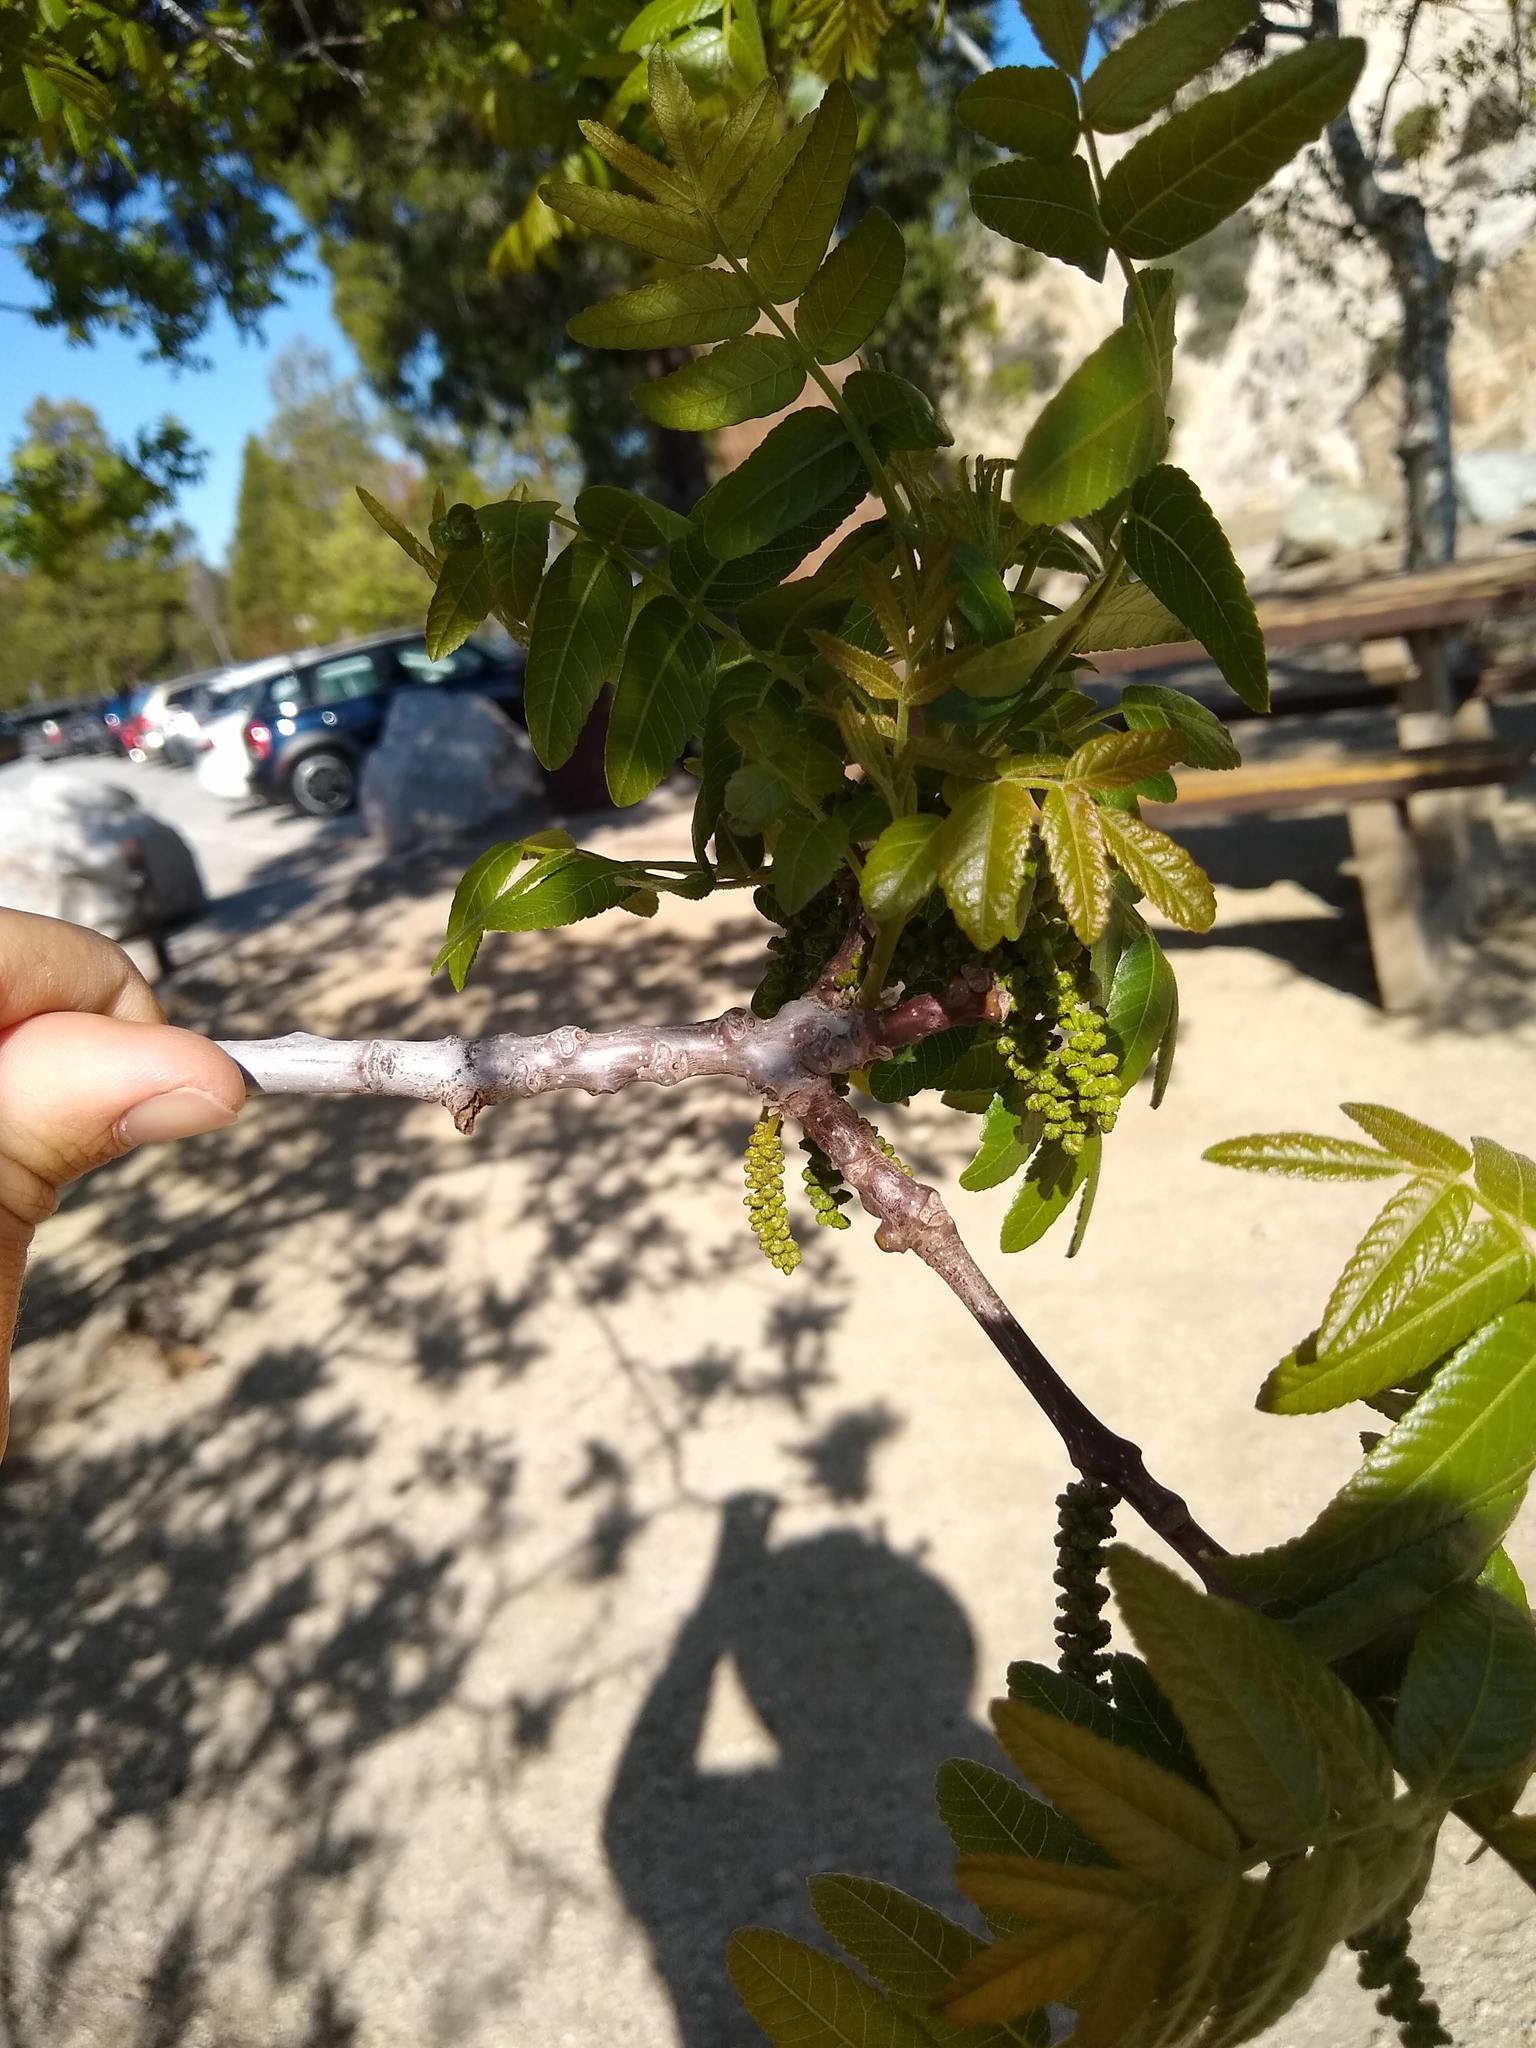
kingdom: Plantae
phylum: Tracheophyta
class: Magnoliopsida
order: Fagales
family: Juglandaceae
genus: Juglans
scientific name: Juglans californica
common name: Southern california black walnut
